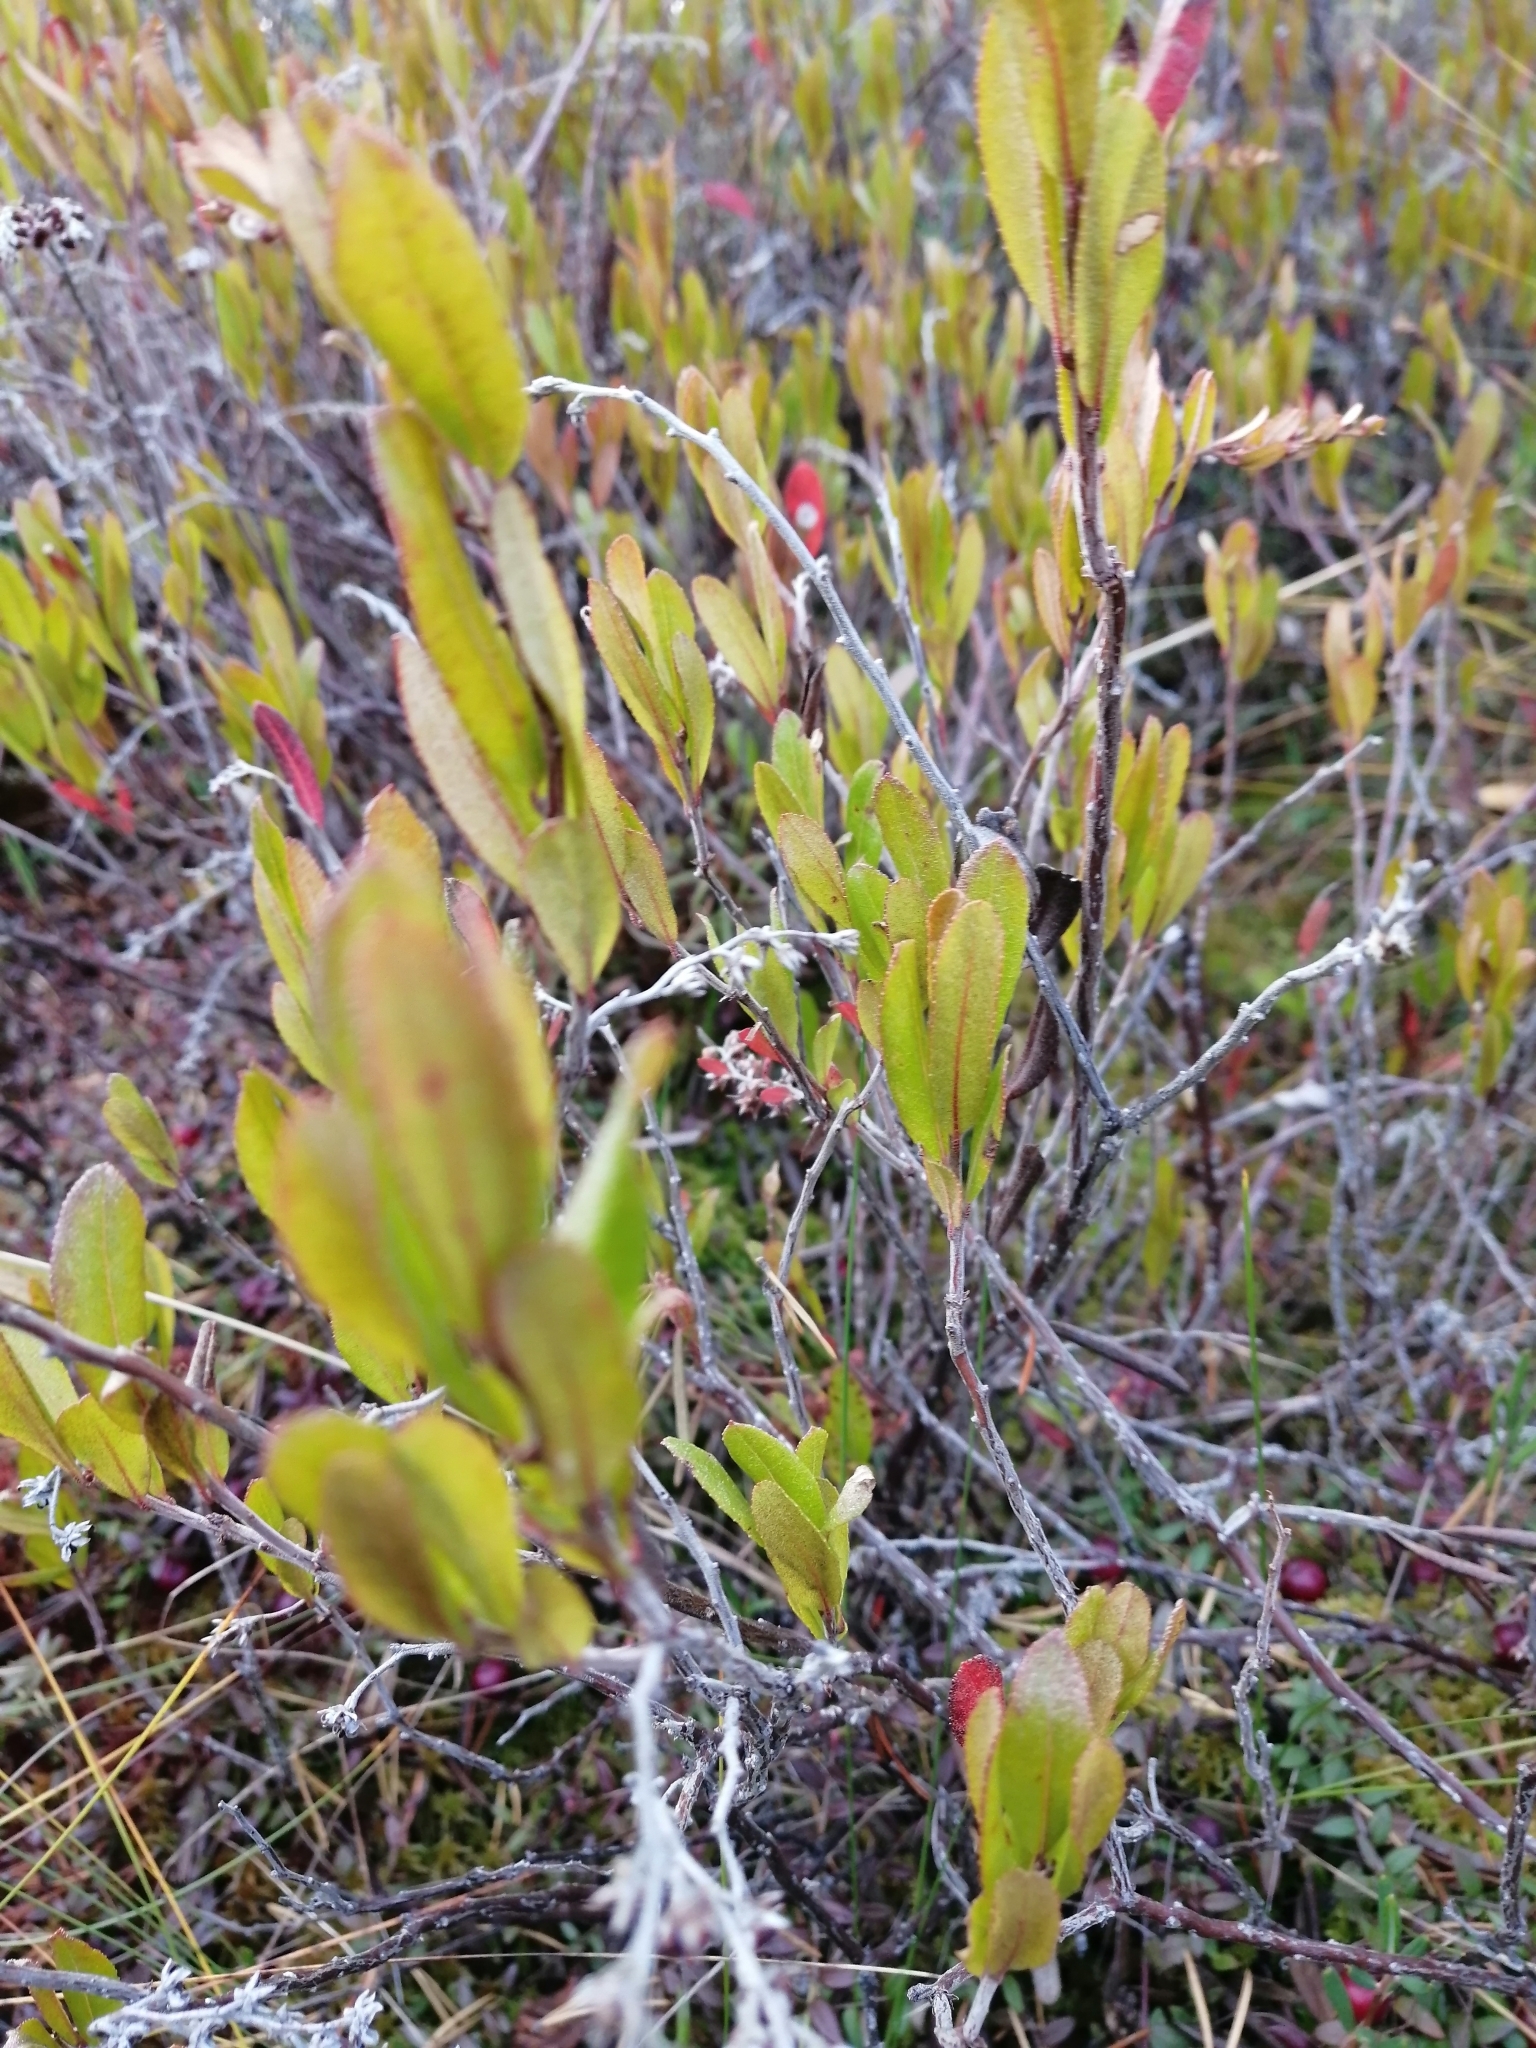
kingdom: Plantae
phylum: Tracheophyta
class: Magnoliopsida
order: Ericales
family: Ericaceae
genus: Chamaedaphne
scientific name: Chamaedaphne calyculata
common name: Leatherleaf
